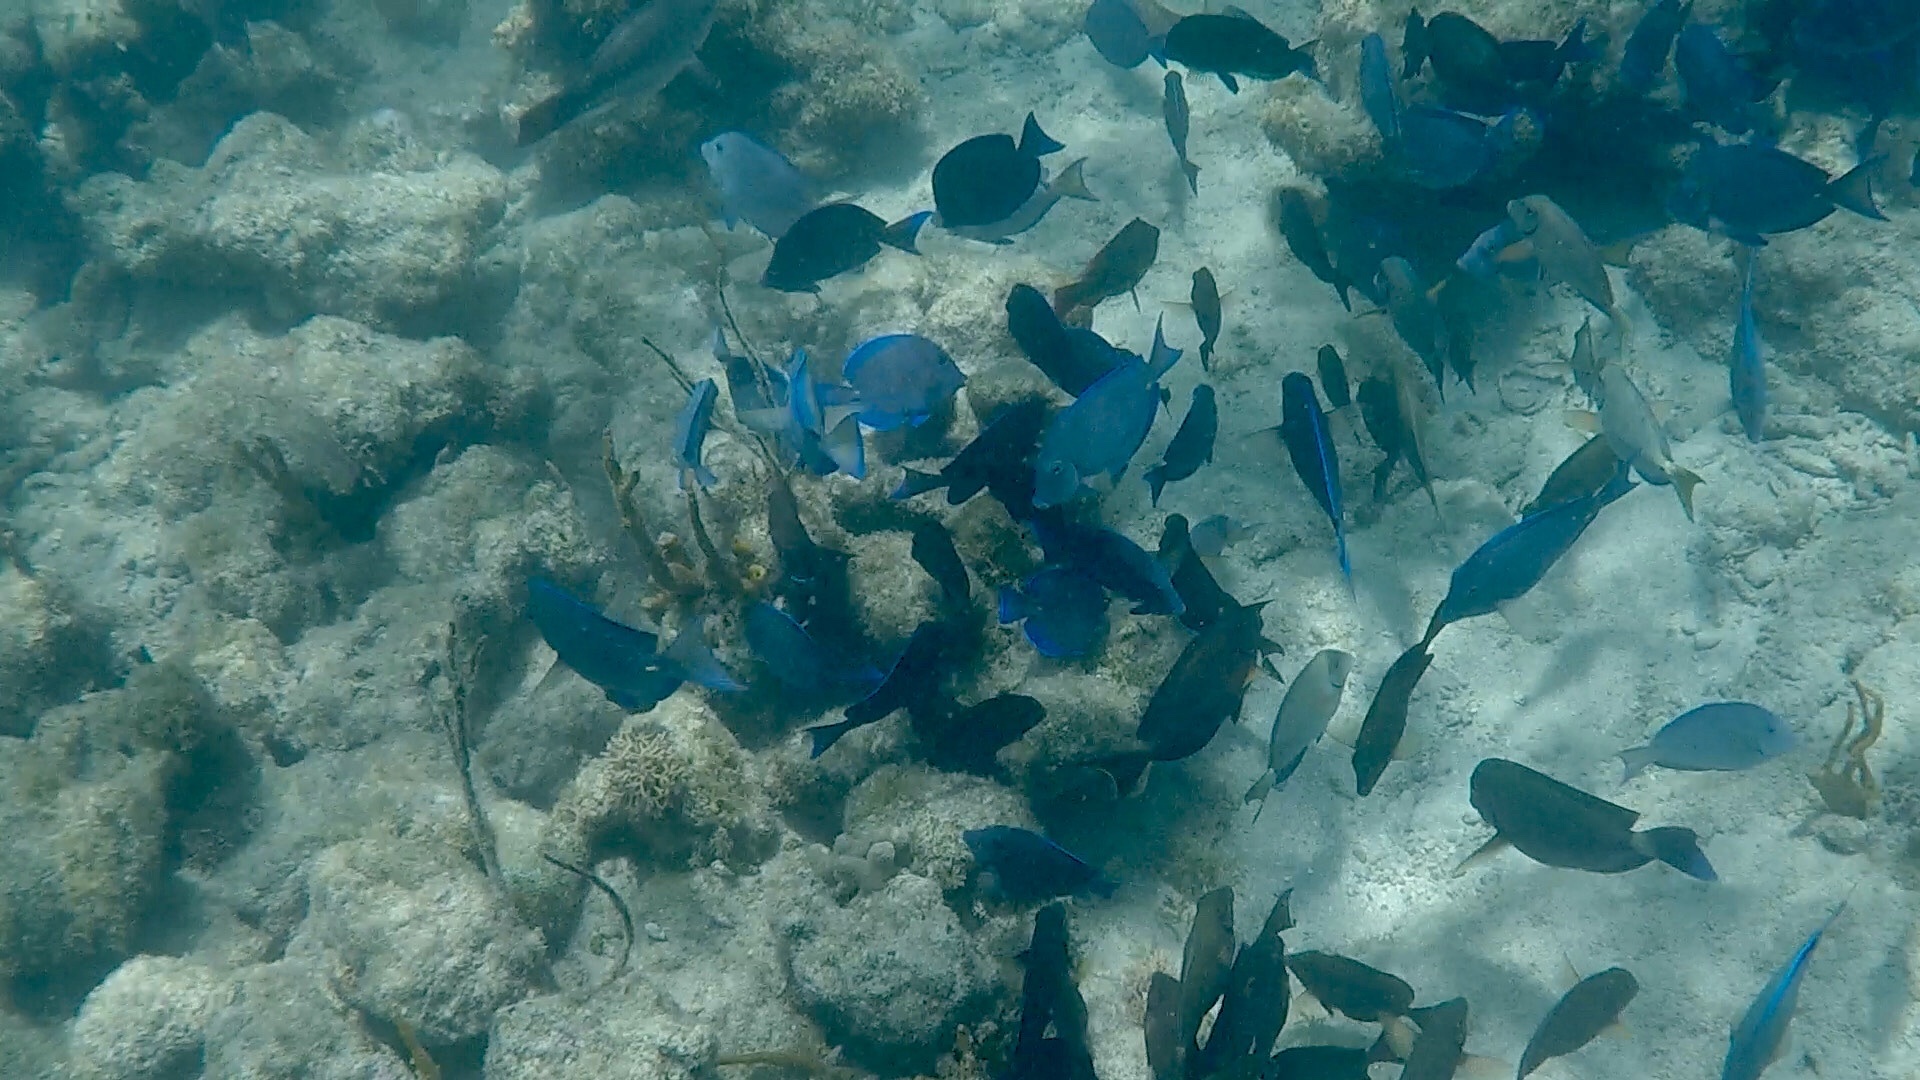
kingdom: Animalia
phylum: Chordata
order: Perciformes
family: Acanthuridae
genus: Acanthurus
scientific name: Acanthurus coeruleus
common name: Blue tang
